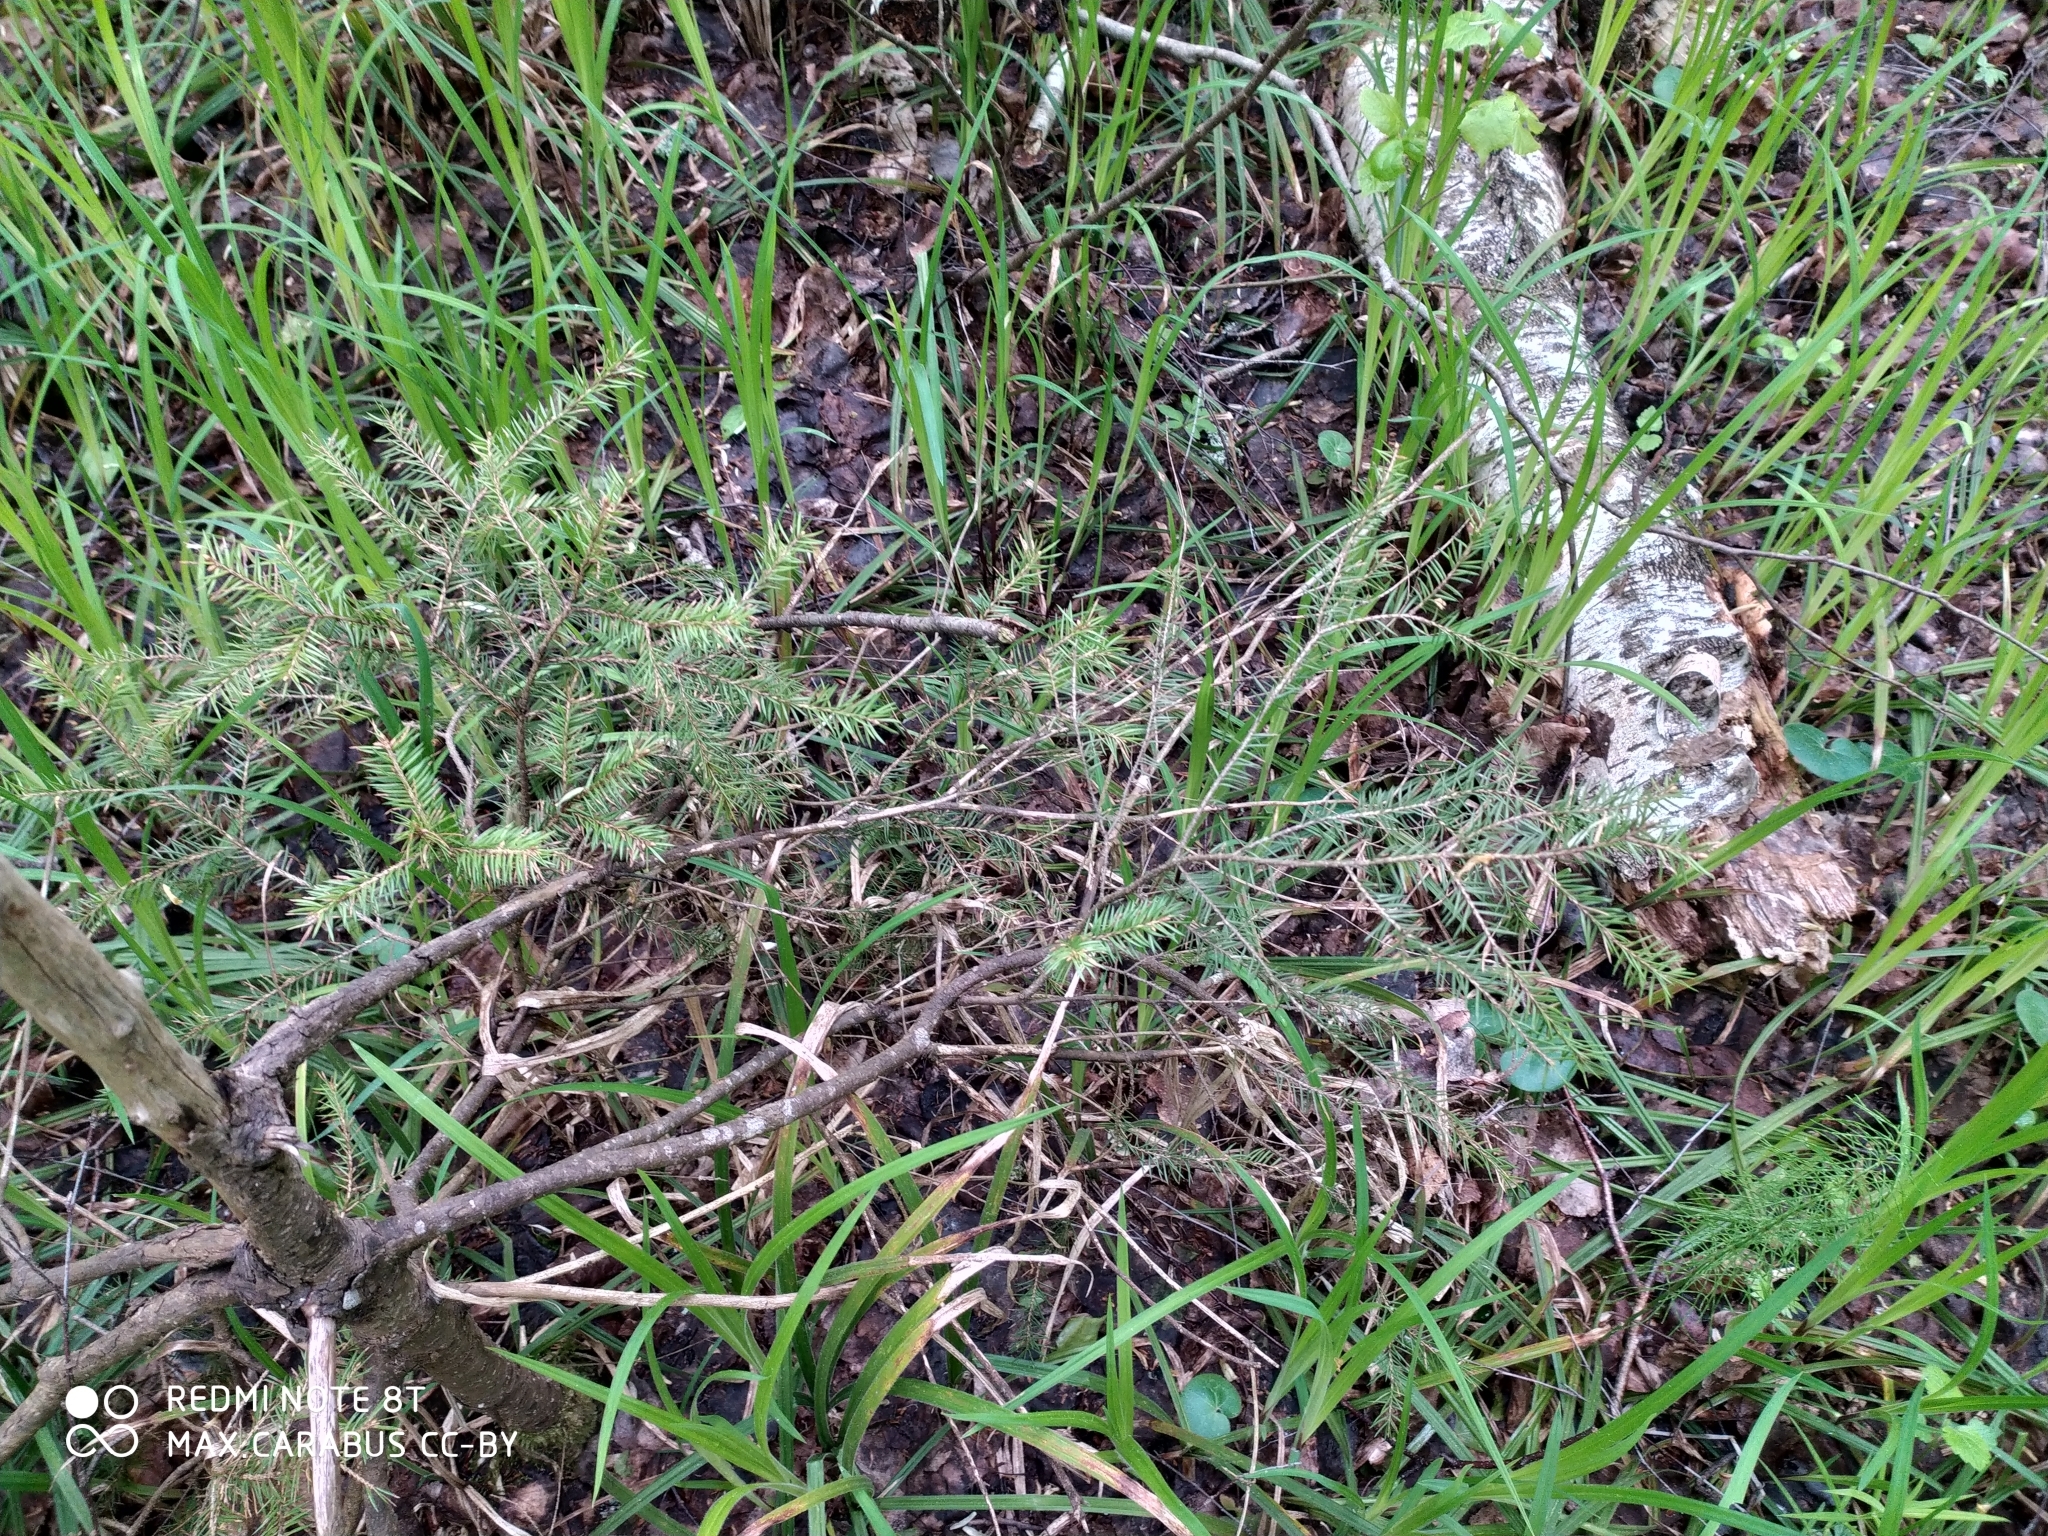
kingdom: Plantae
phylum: Tracheophyta
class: Pinopsida
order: Pinales
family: Pinaceae
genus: Picea
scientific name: Picea abies
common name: Norway spruce
